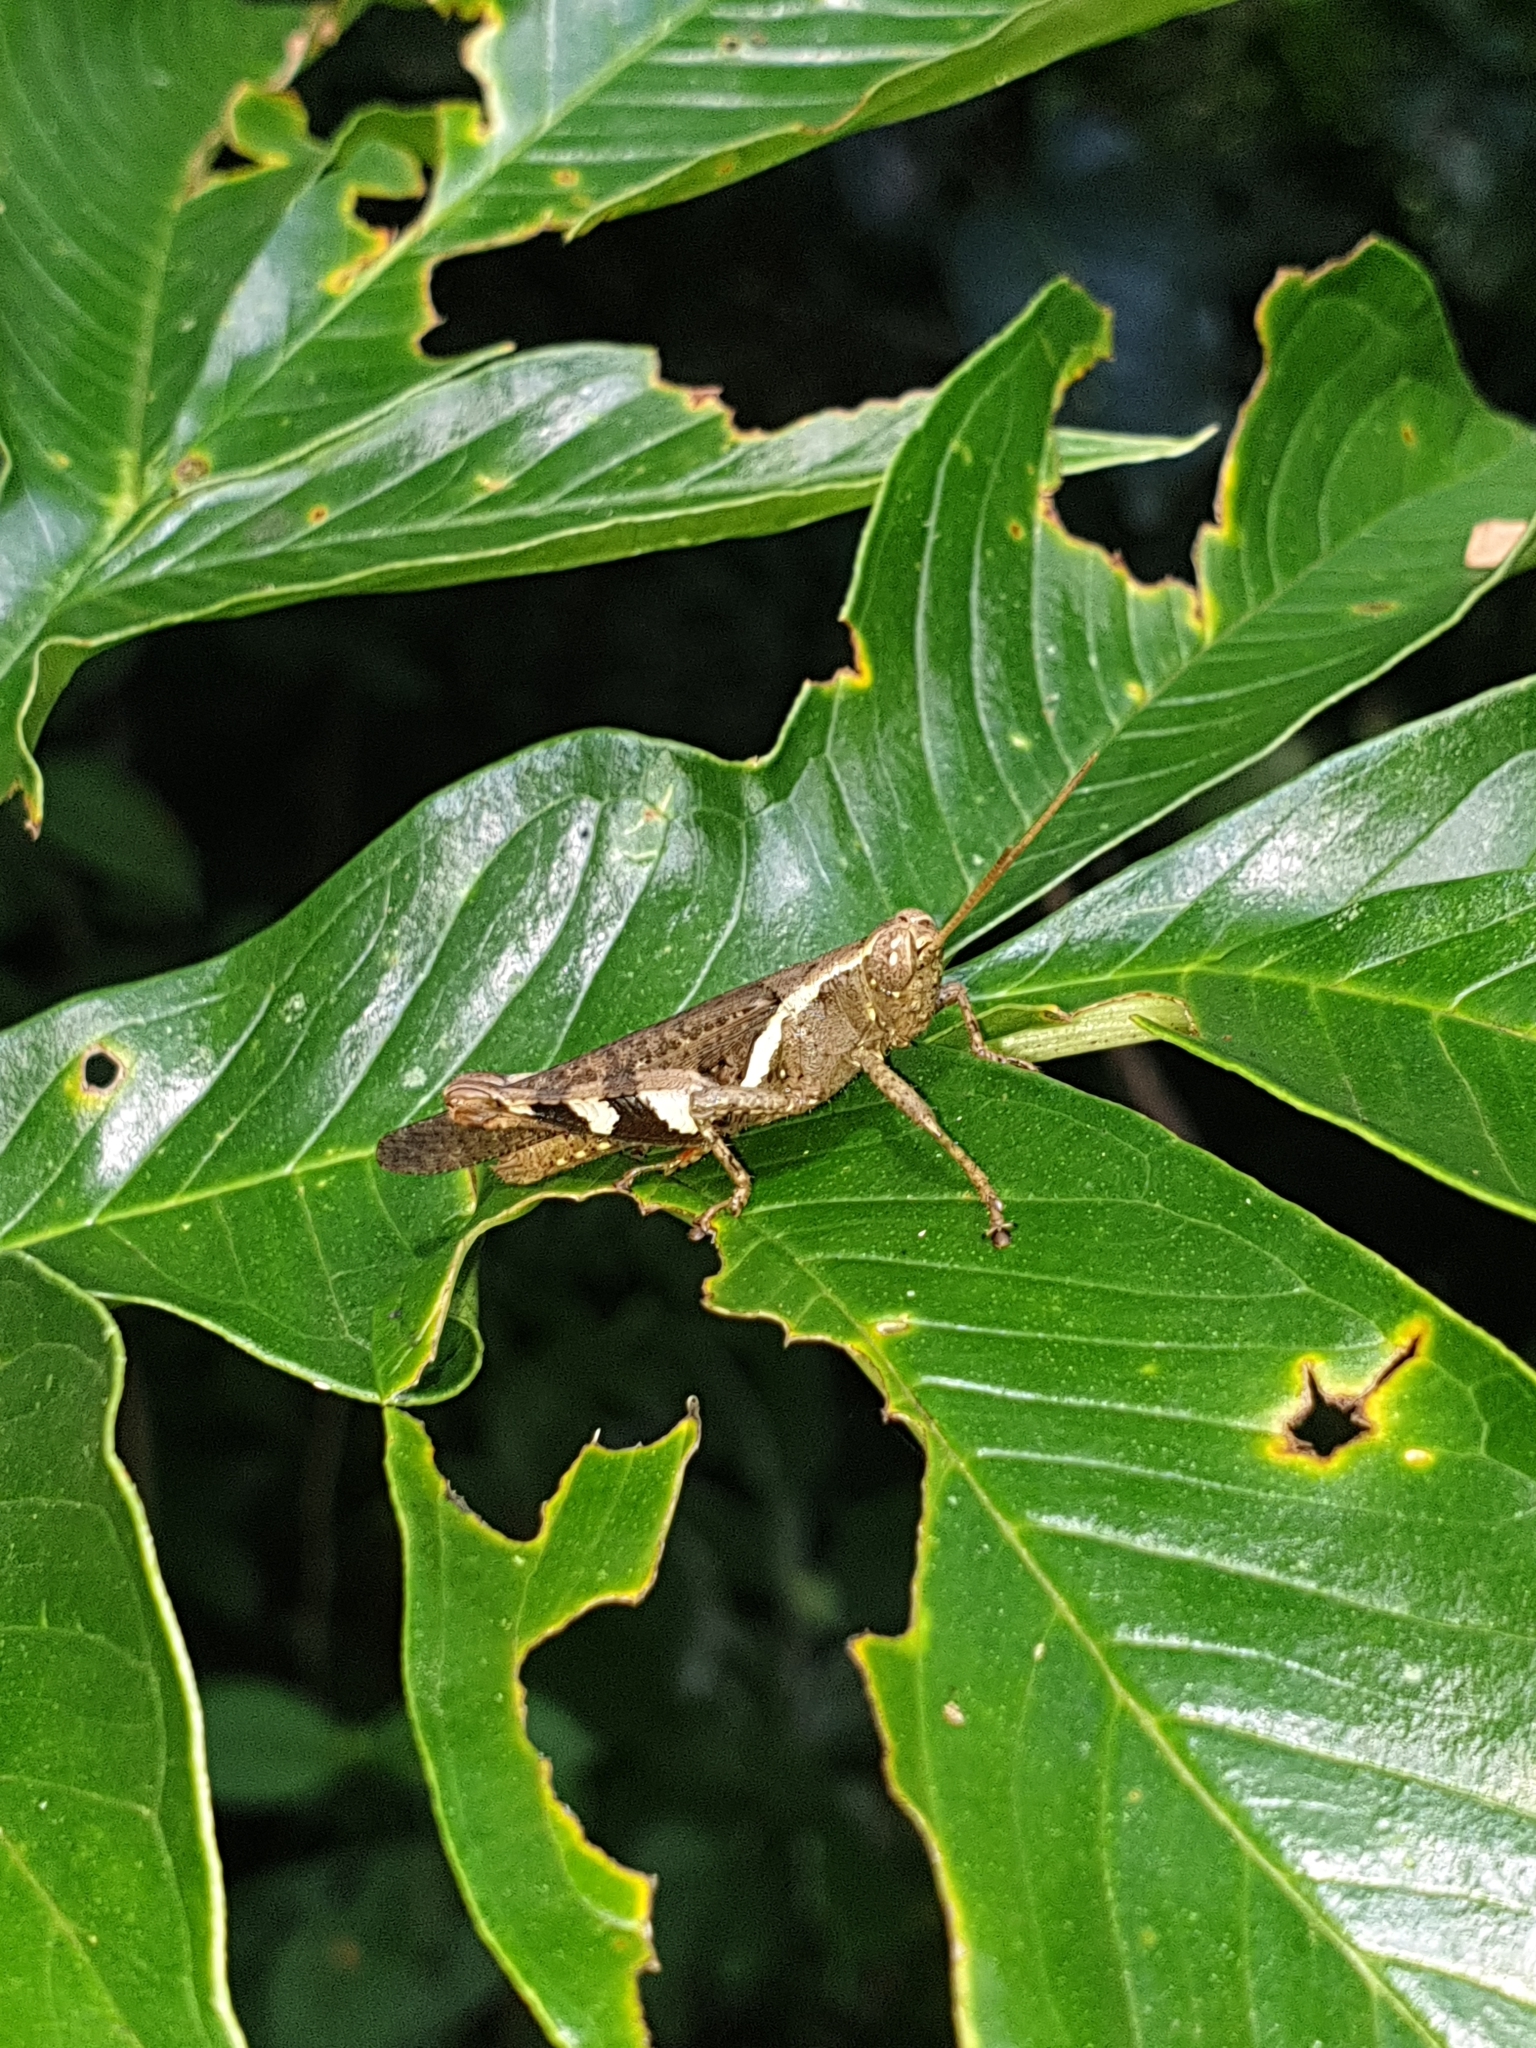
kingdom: Animalia
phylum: Arthropoda
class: Insecta
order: Orthoptera
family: Acrididae
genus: Xenocatantops
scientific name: Xenocatantops humile
